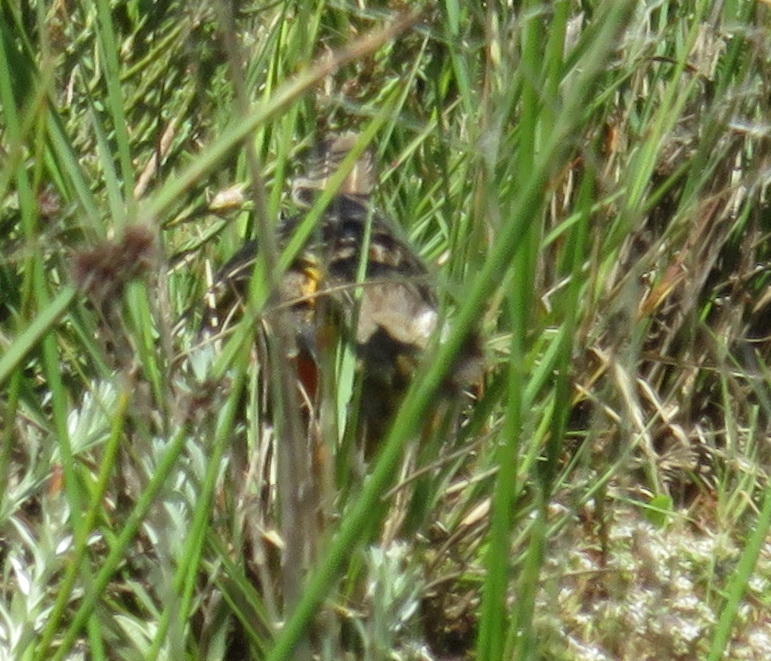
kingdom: Animalia
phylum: Chordata
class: Aves
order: Passeriformes
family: Motacillidae
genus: Macronyx
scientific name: Macronyx capensis
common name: Cape longclaw
